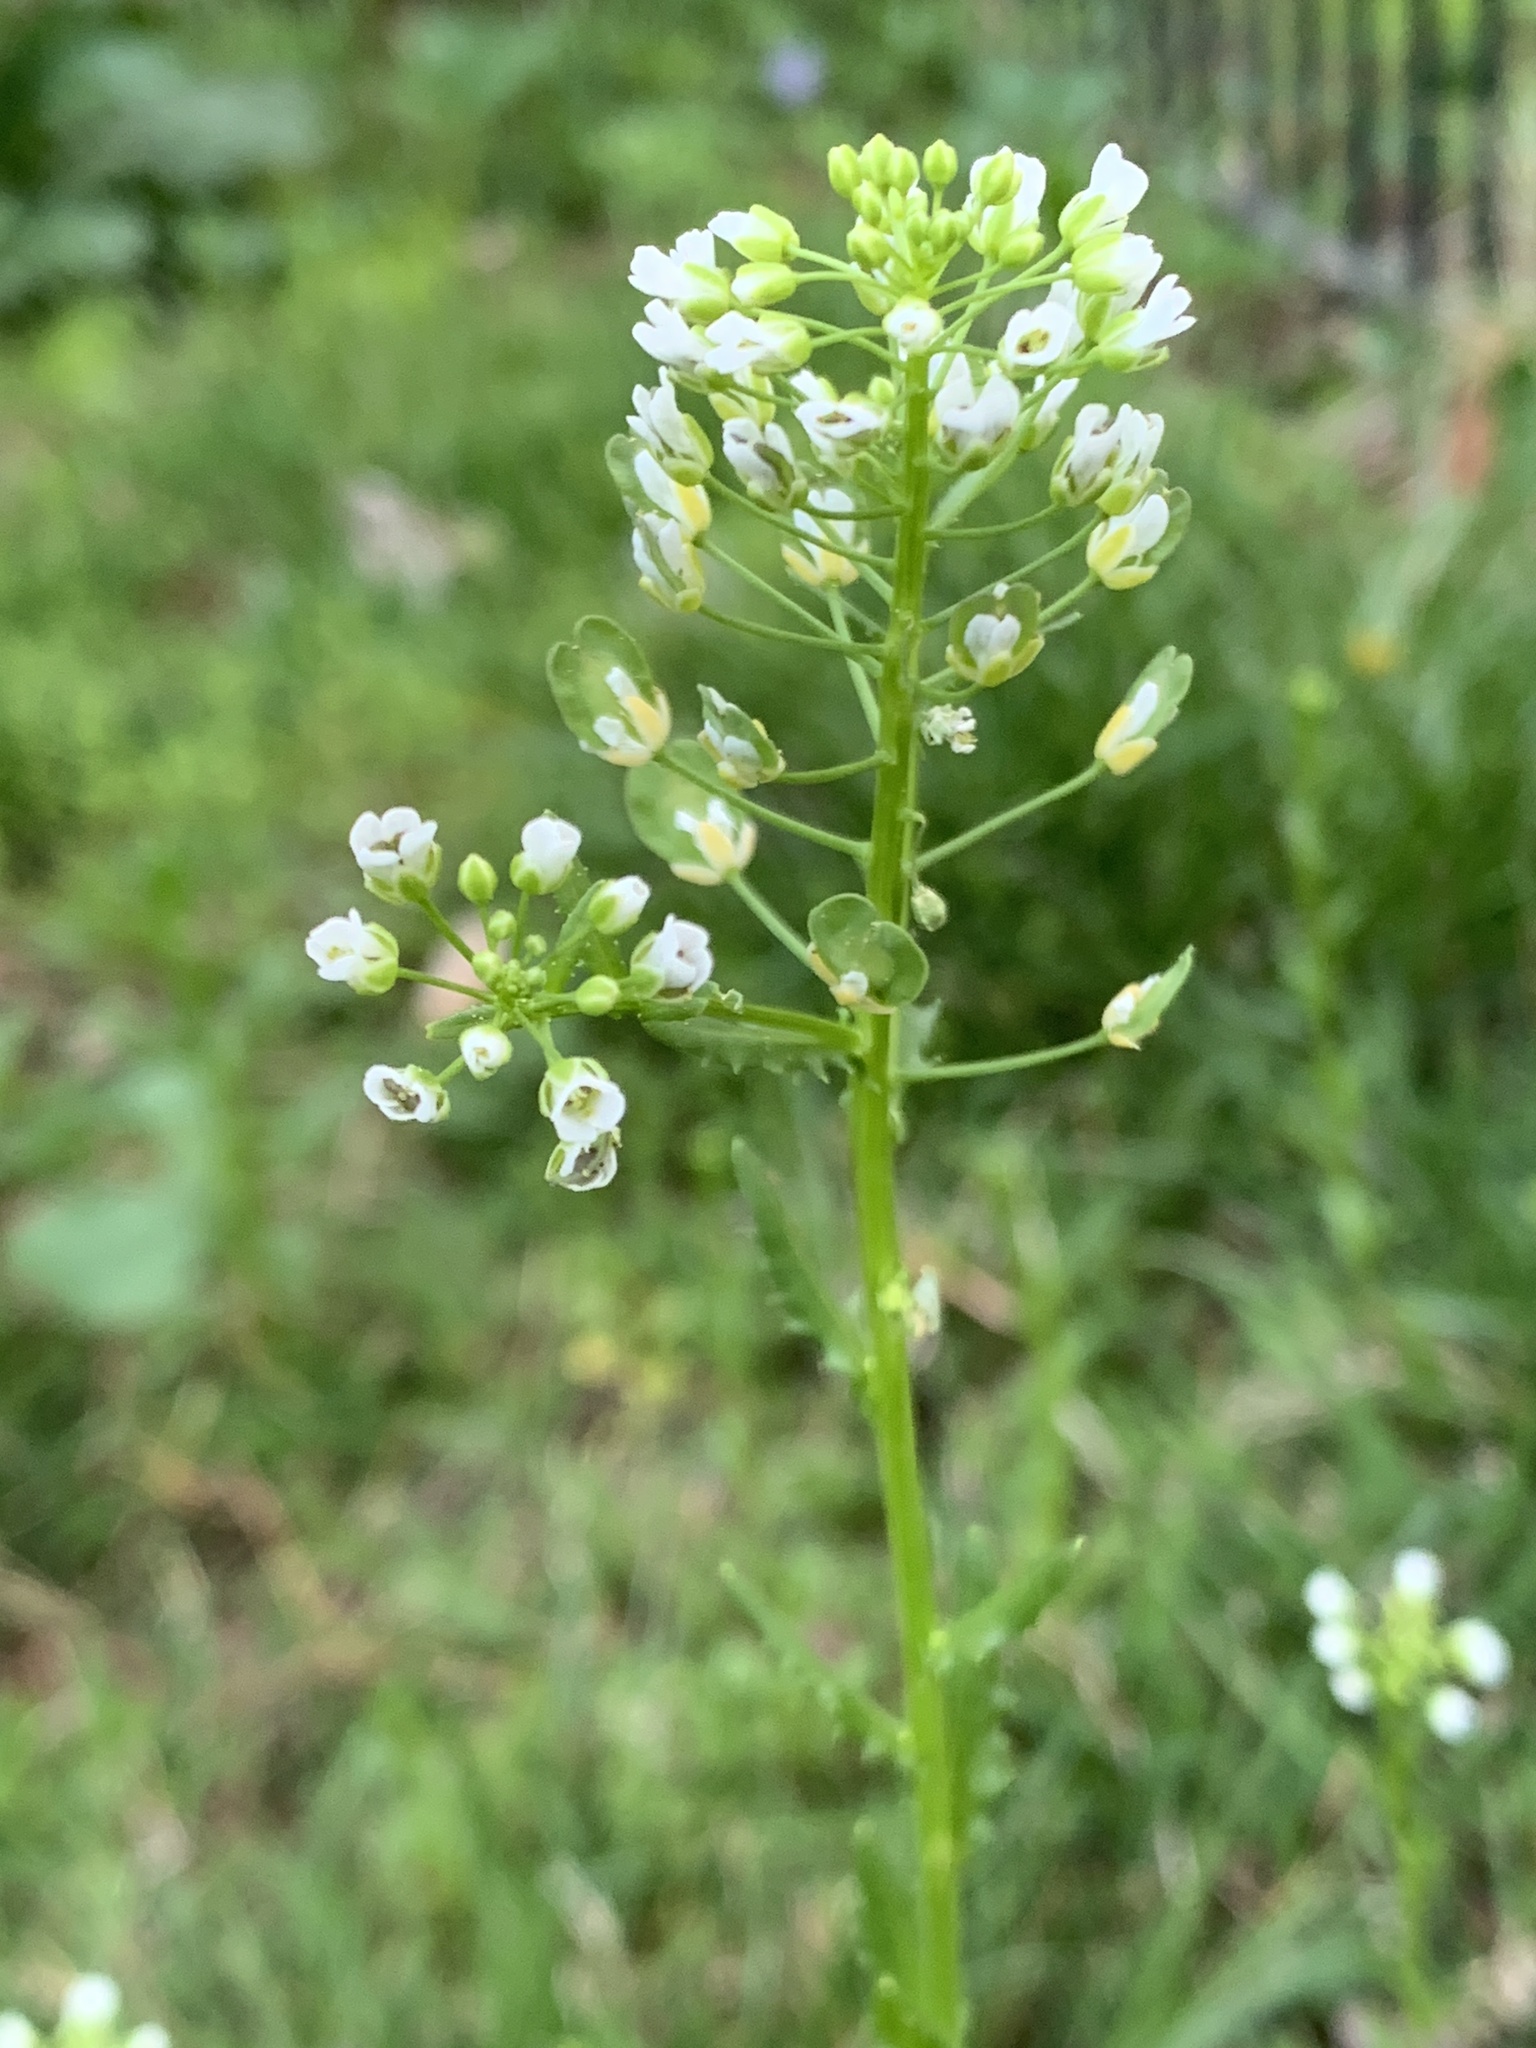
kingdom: Plantae
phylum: Tracheophyta
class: Magnoliopsida
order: Brassicales
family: Brassicaceae
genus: Thlaspi
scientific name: Thlaspi arvense
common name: Field pennycress
